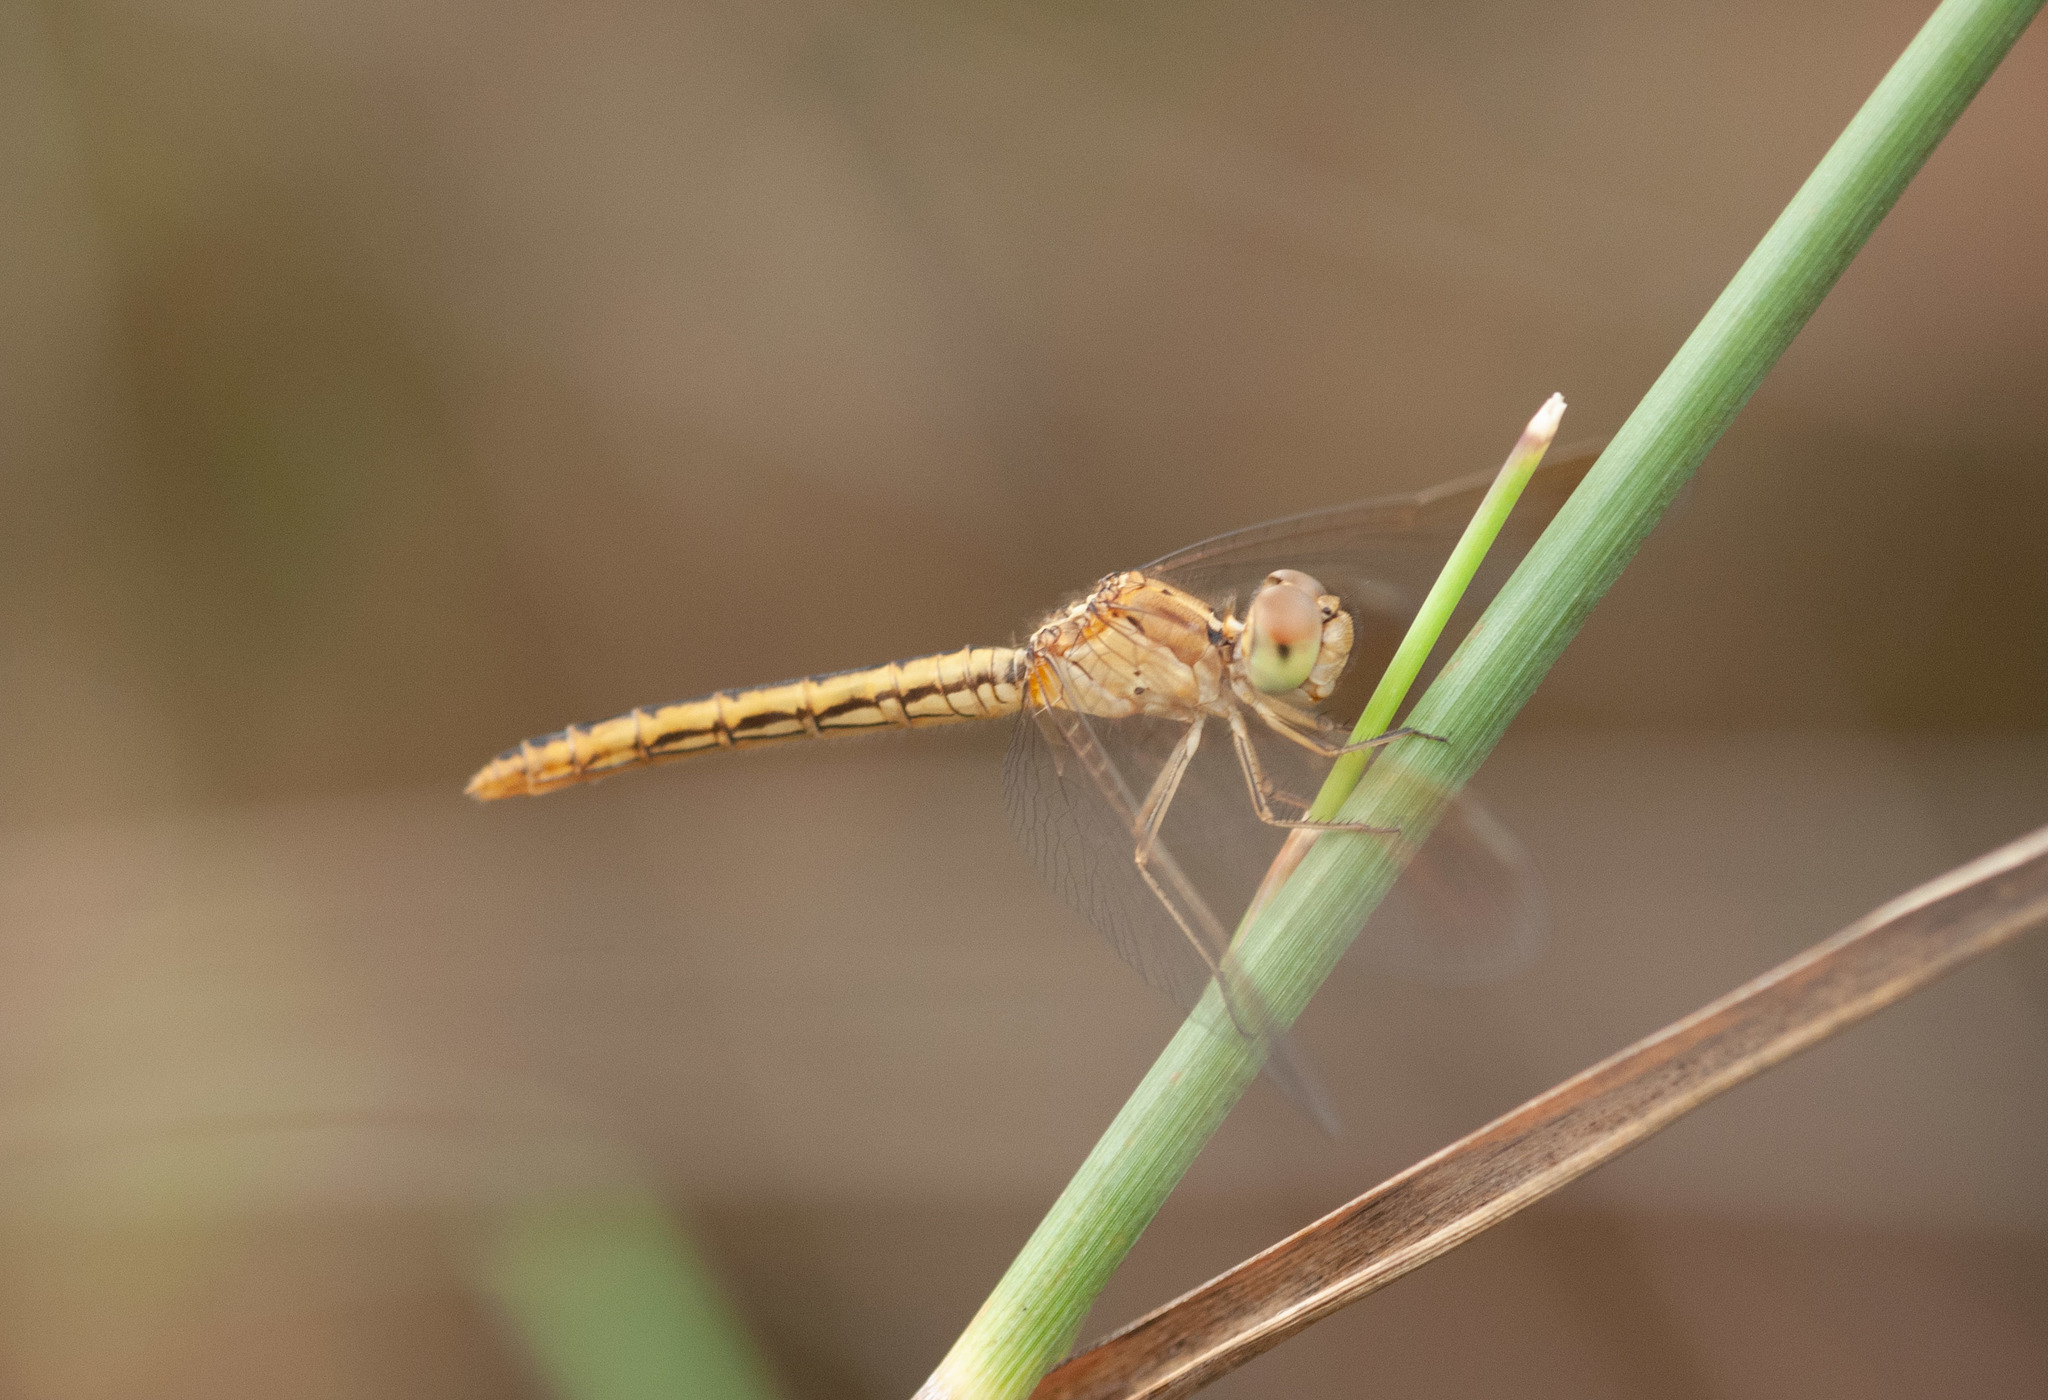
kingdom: Animalia
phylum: Arthropoda
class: Insecta
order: Odonata
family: Libellulidae
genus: Diplacodes
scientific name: Diplacodes haematodes
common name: Scarlet percher
